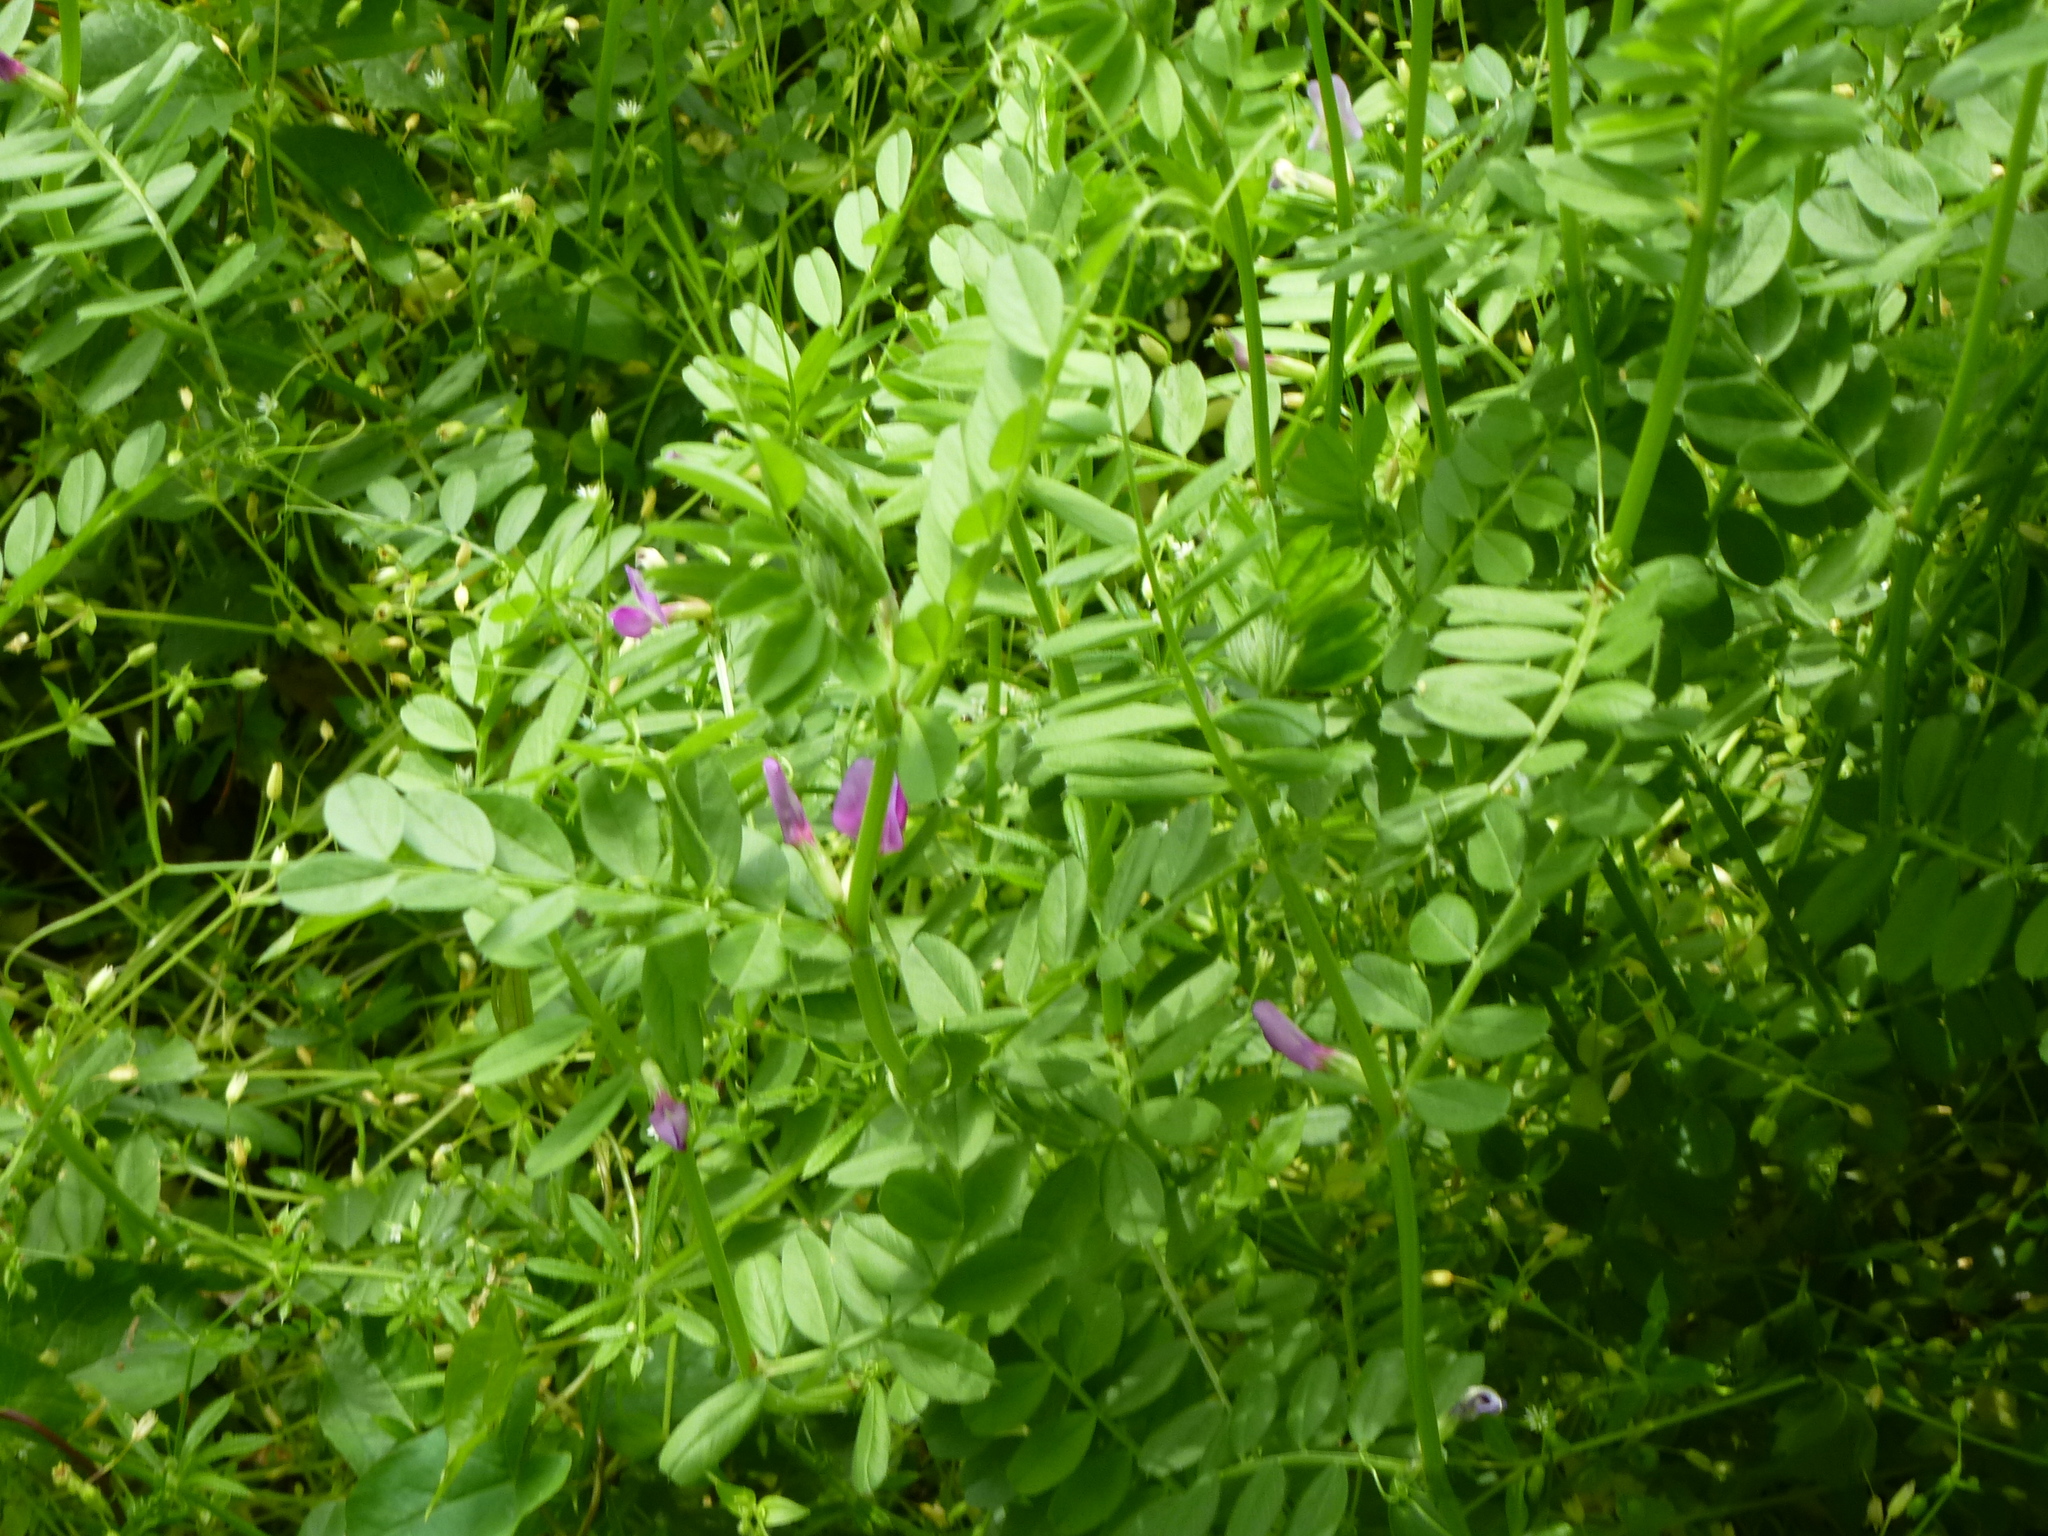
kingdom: Plantae
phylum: Tracheophyta
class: Magnoliopsida
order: Fabales
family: Fabaceae
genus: Vicia
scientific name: Vicia sativa
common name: Garden vetch
